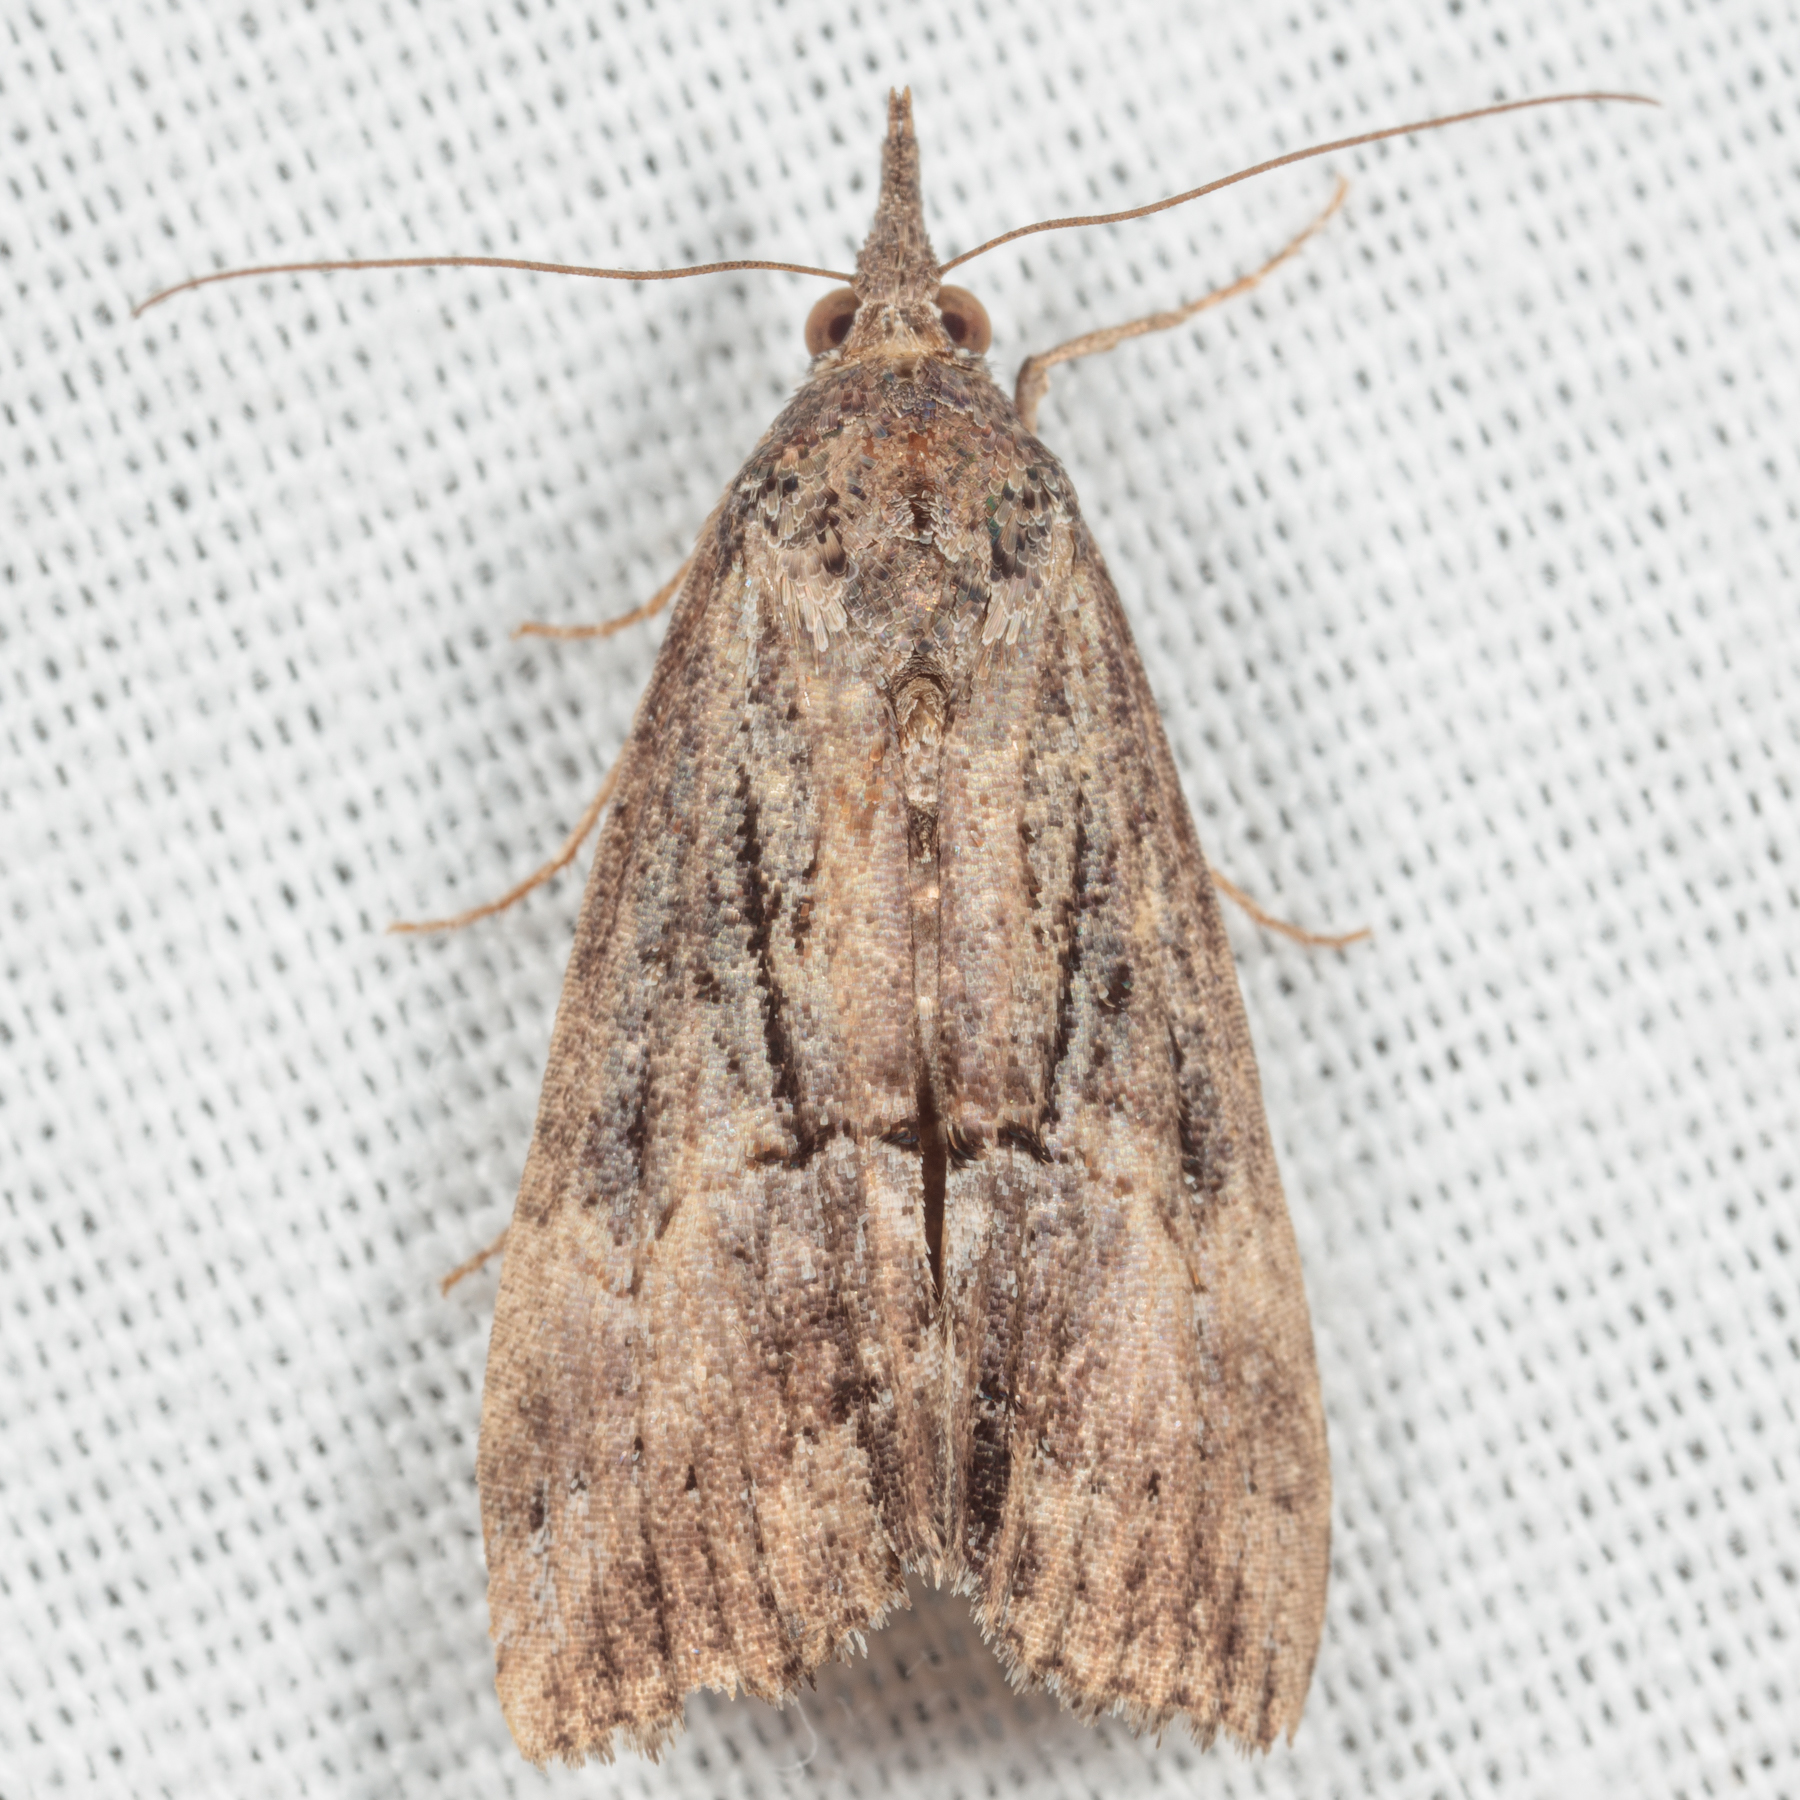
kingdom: Animalia
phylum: Arthropoda
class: Insecta
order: Lepidoptera
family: Erebidae
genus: Hypena
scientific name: Hypena scabra
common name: Green cloverworm
